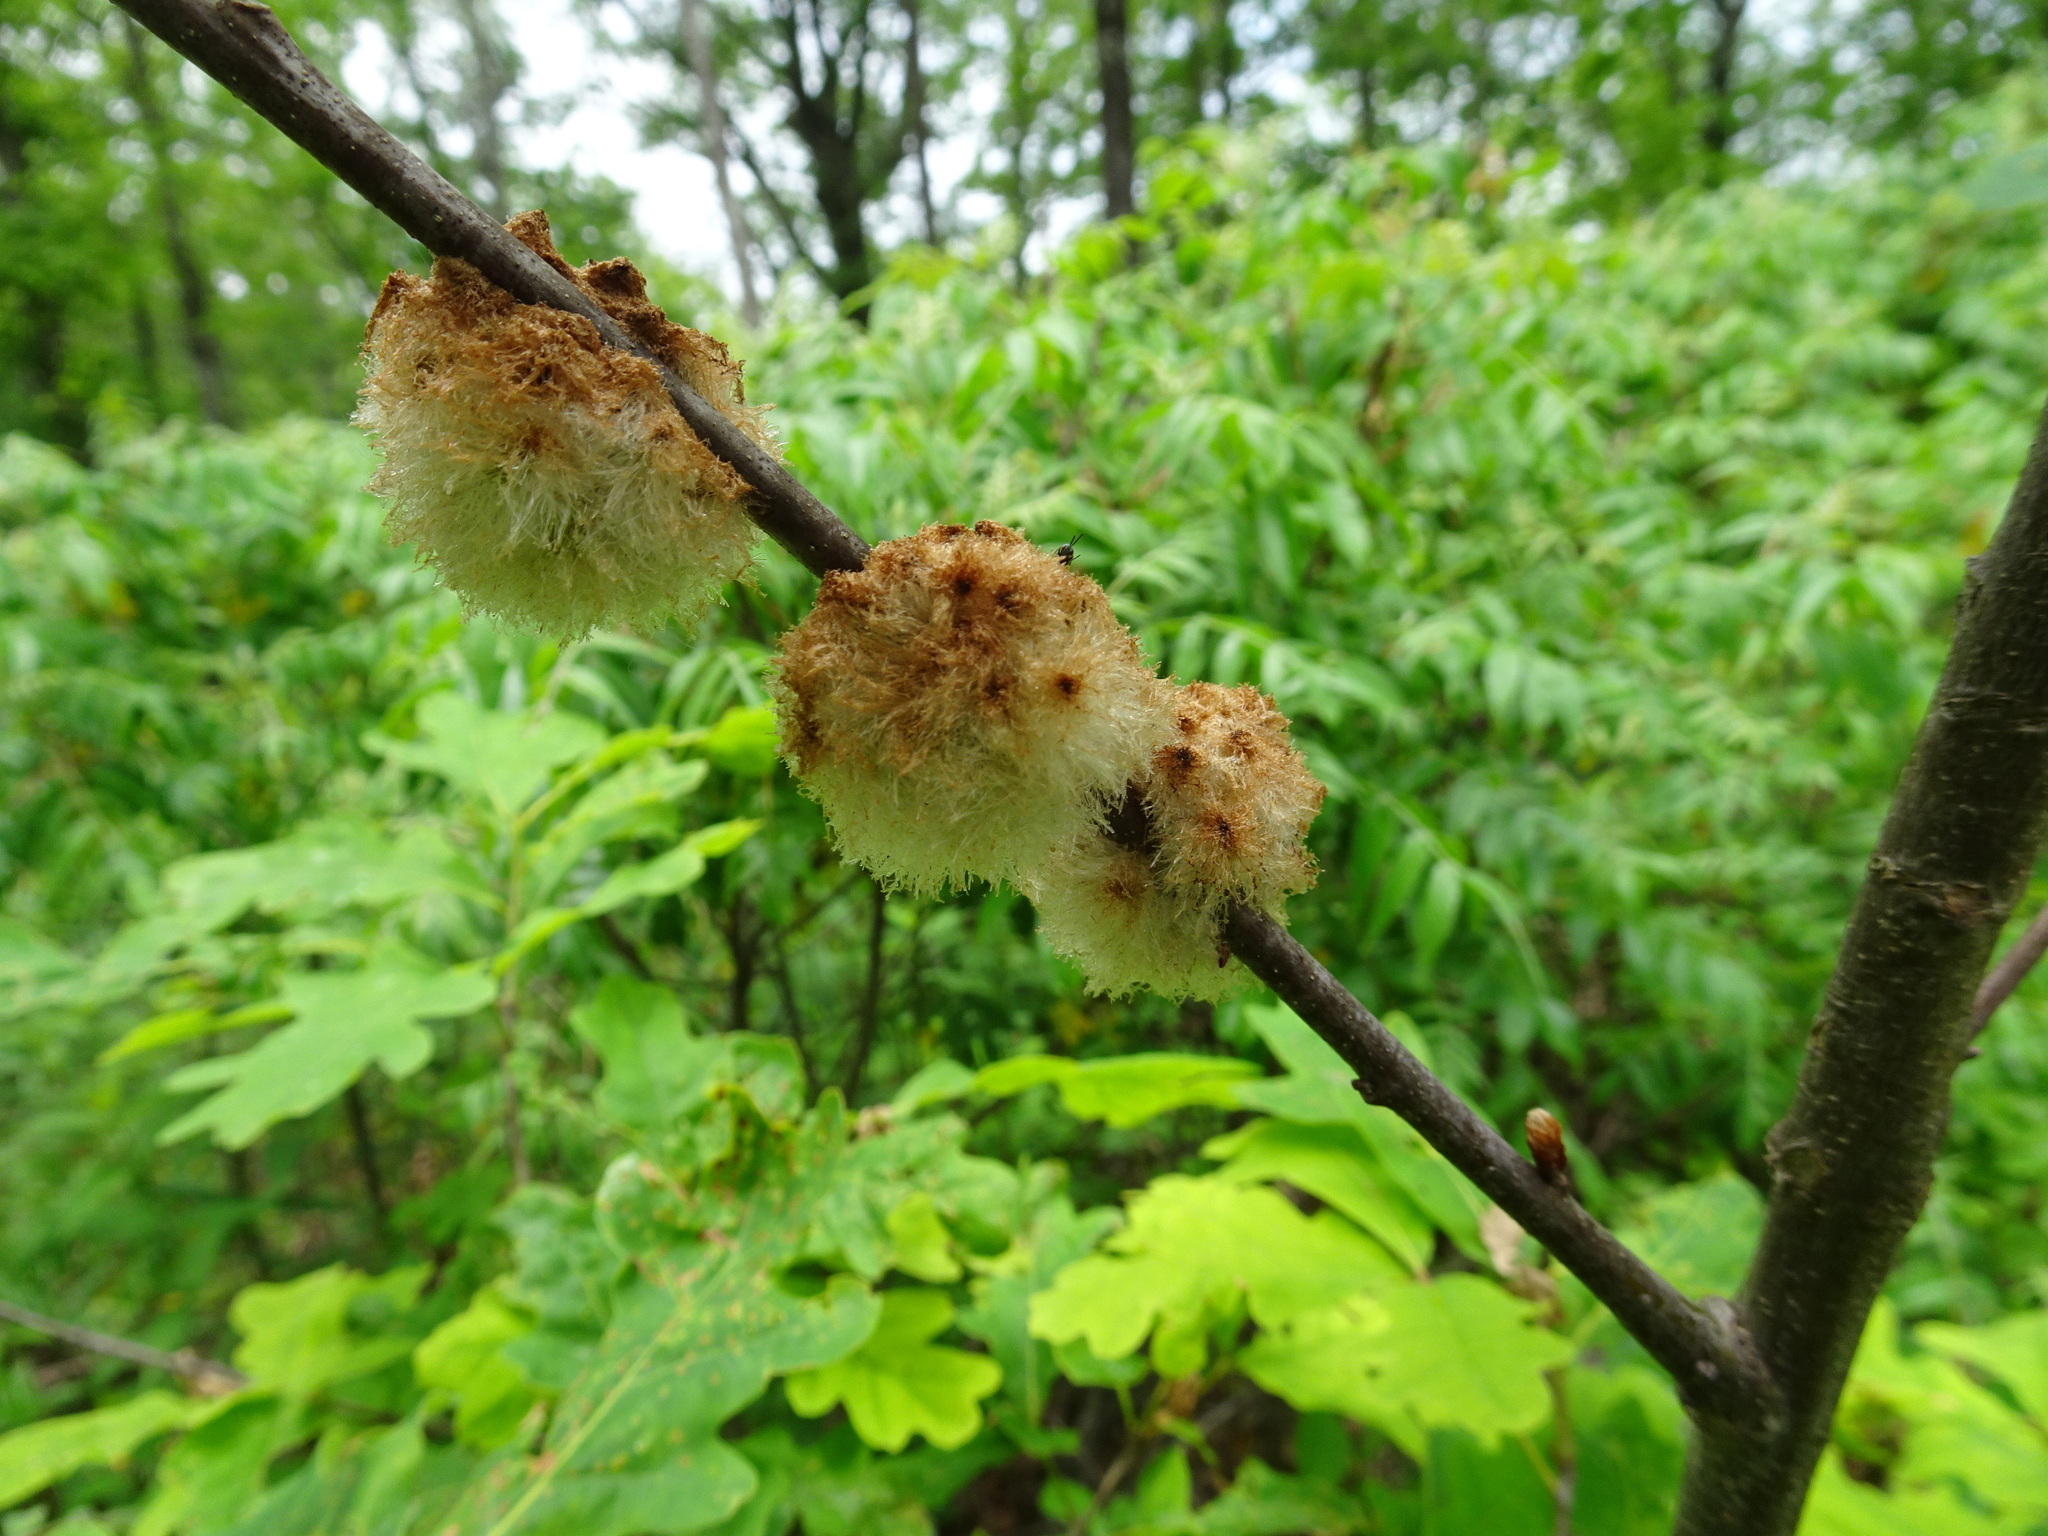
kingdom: Animalia
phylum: Arthropoda
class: Insecta
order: Hymenoptera
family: Cynipidae
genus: Callirhytis
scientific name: Callirhytis
